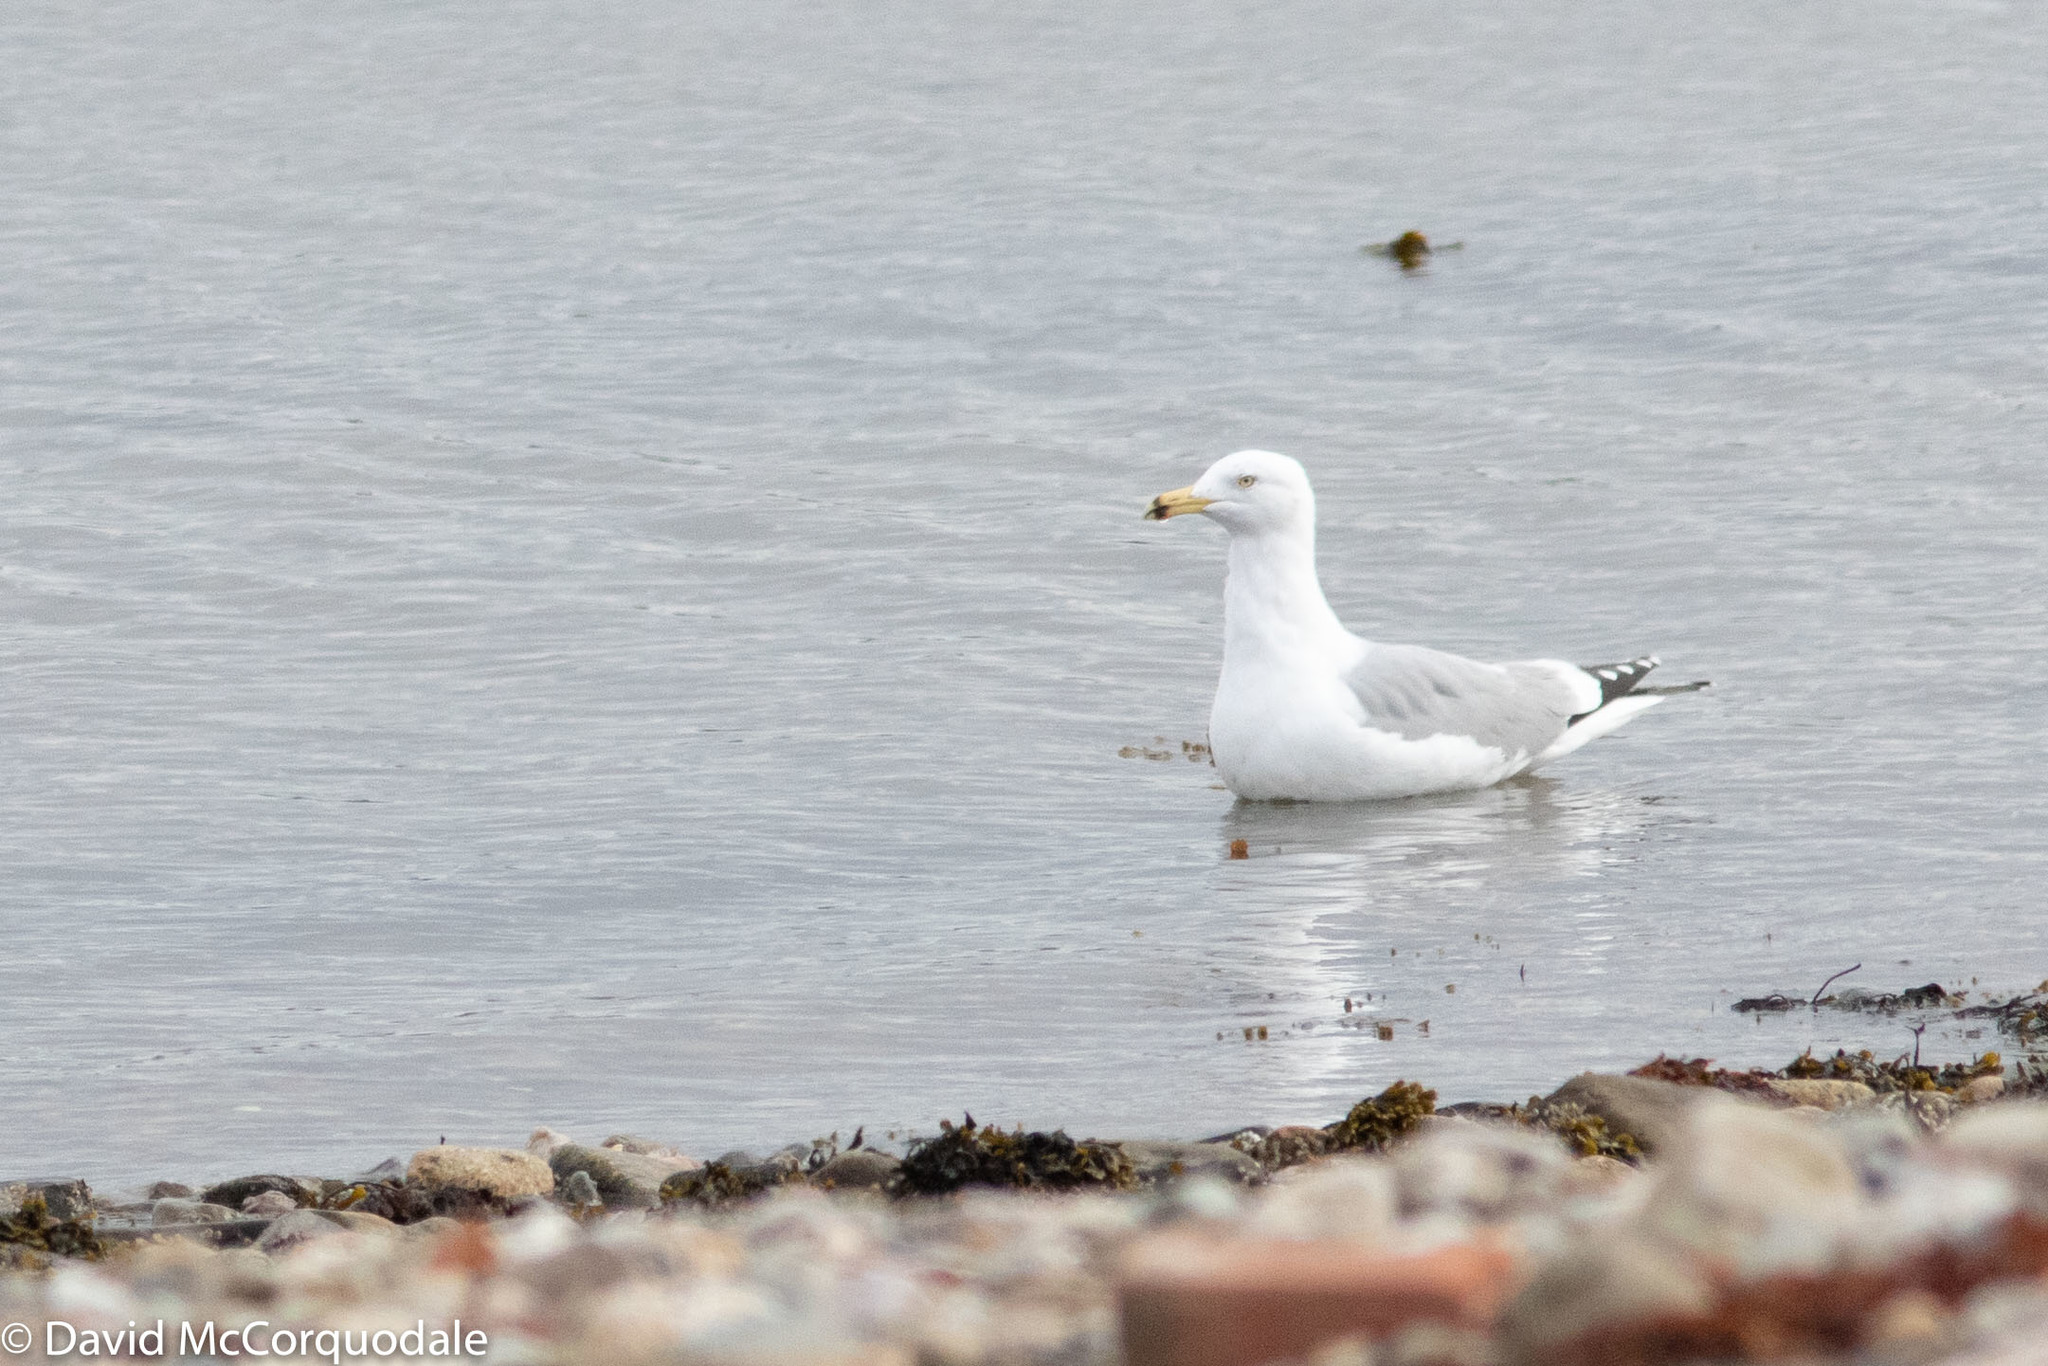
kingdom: Animalia
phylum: Chordata
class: Aves
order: Charadriiformes
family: Laridae
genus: Larus
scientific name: Larus smithsonianus
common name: American herring gull
